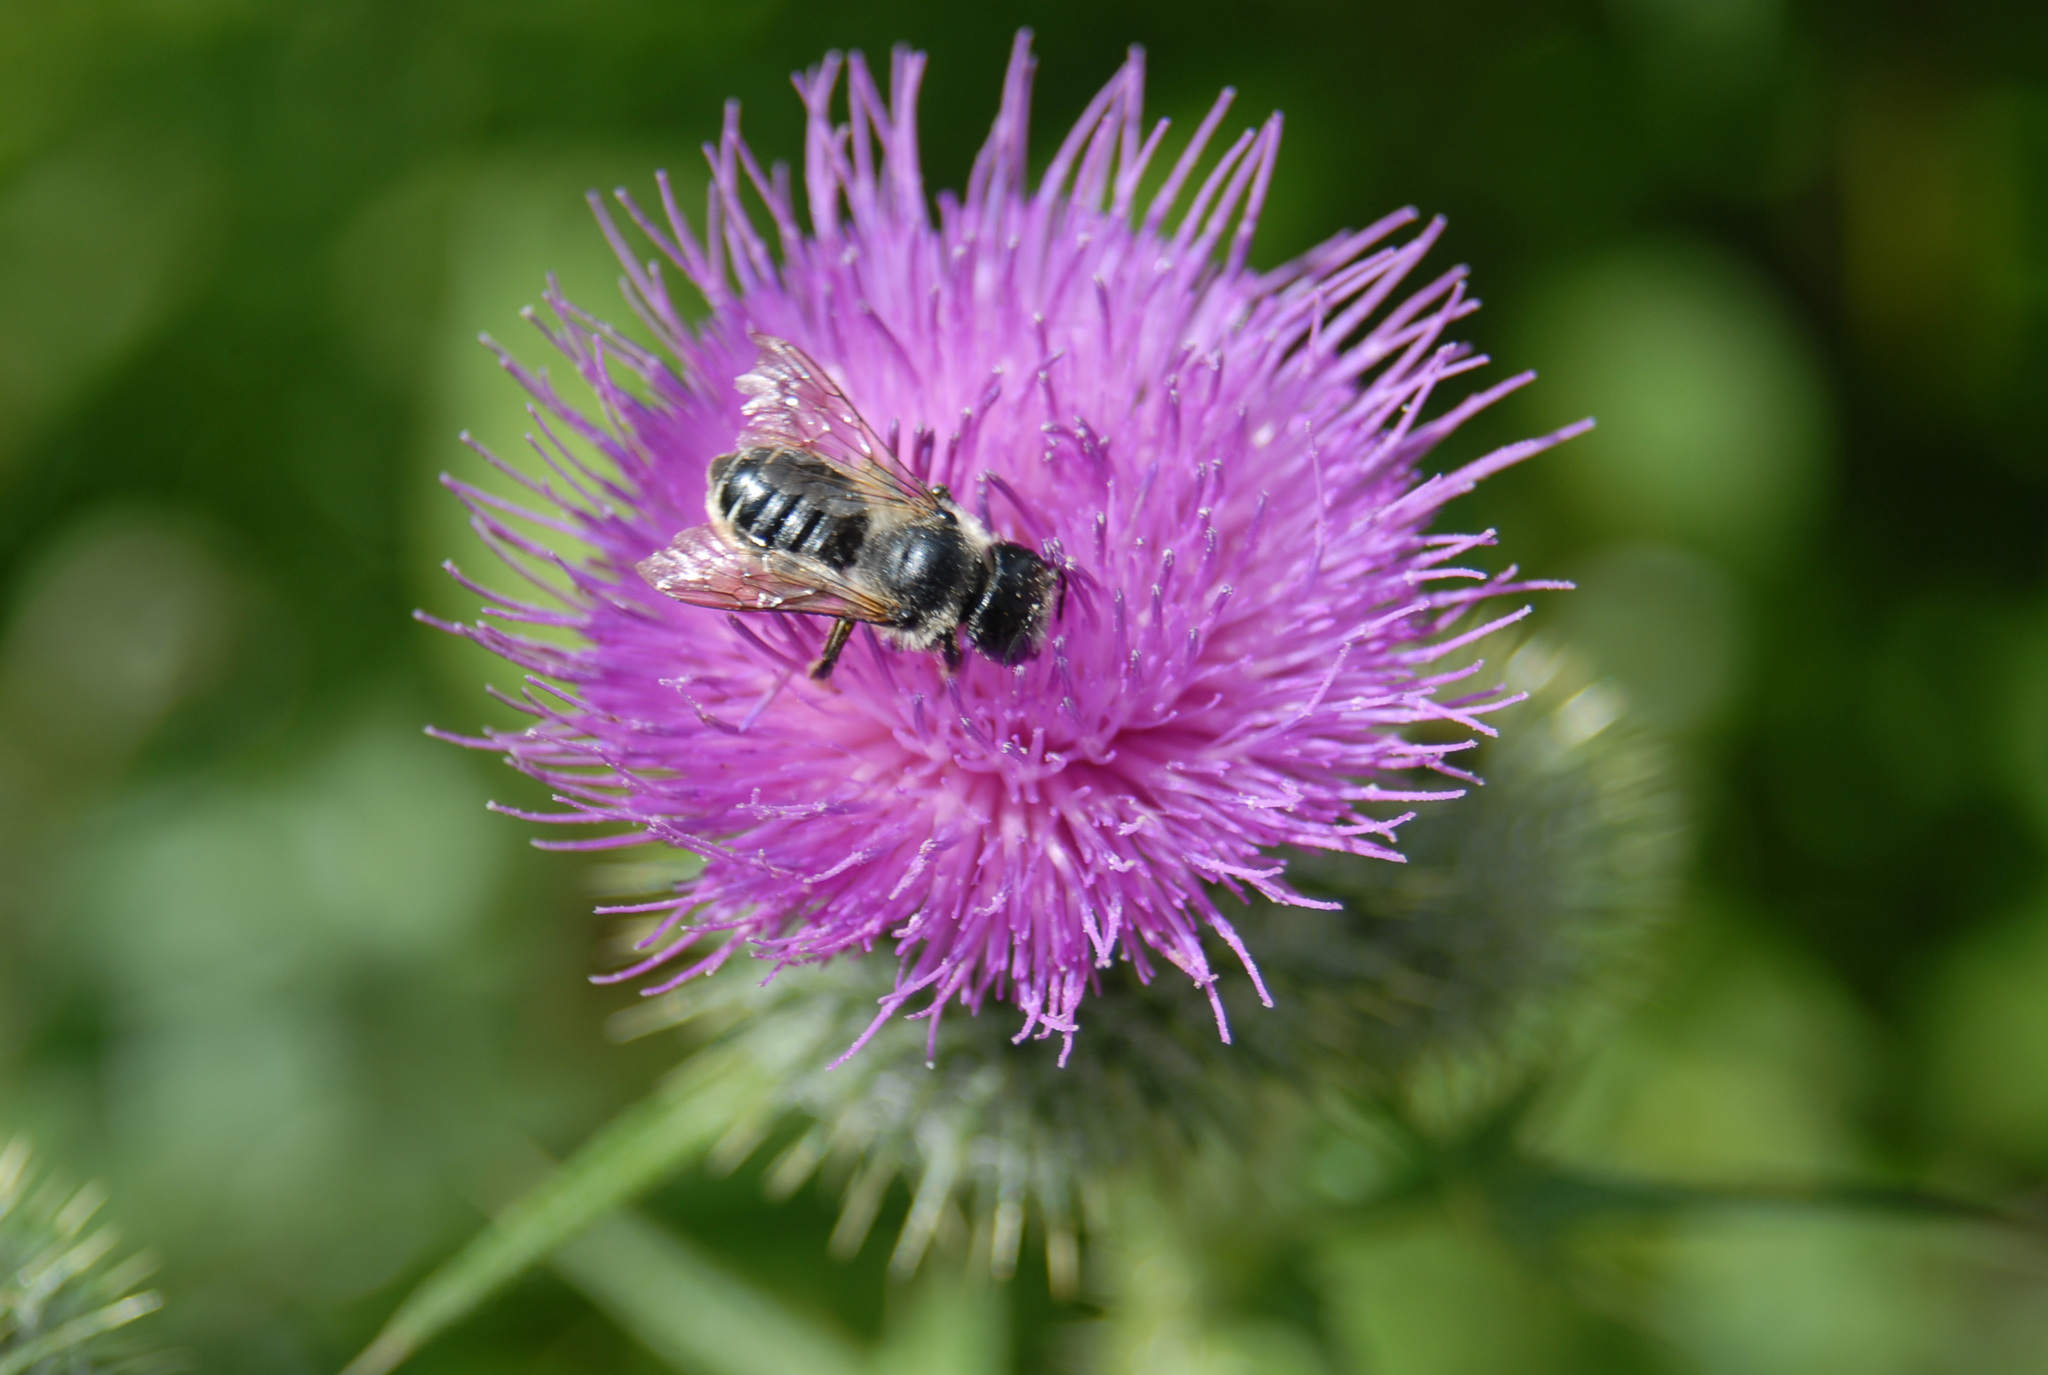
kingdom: Animalia
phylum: Arthropoda
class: Insecta
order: Hymenoptera
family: Megachilidae
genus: Megachile
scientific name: Megachile inermis
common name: Unarmed leafcutter bee
